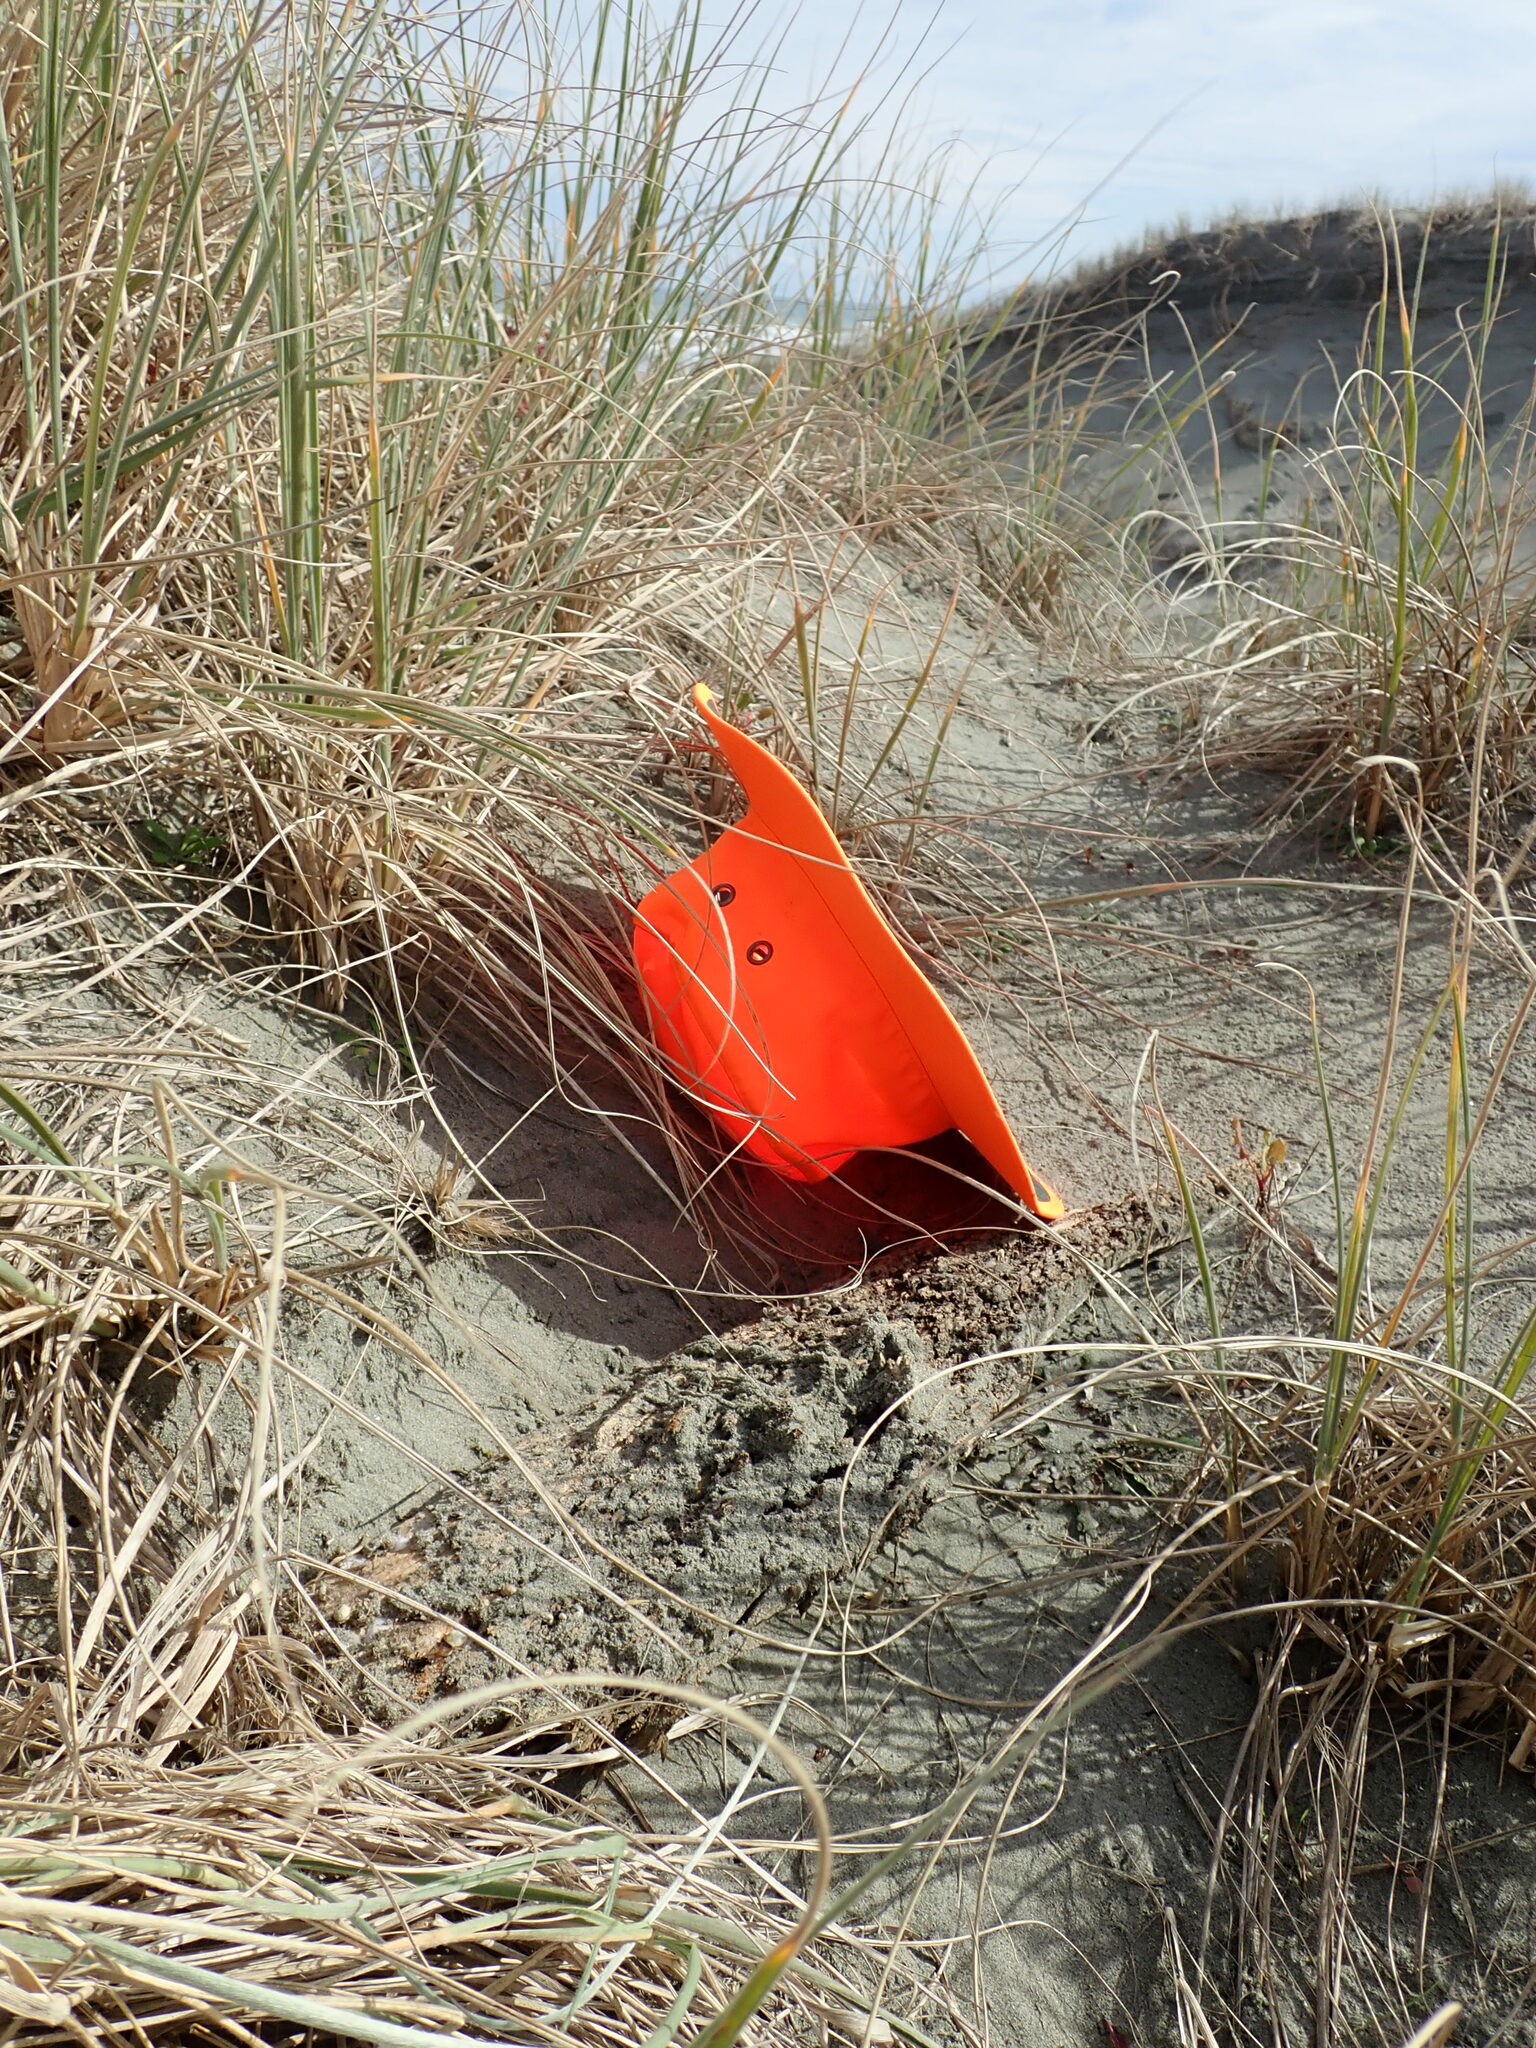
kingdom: Animalia
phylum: Arthropoda
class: Arachnida
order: Araneae
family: Theridiidae
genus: Steatoda
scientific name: Steatoda capensis
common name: Cobweb weaver
